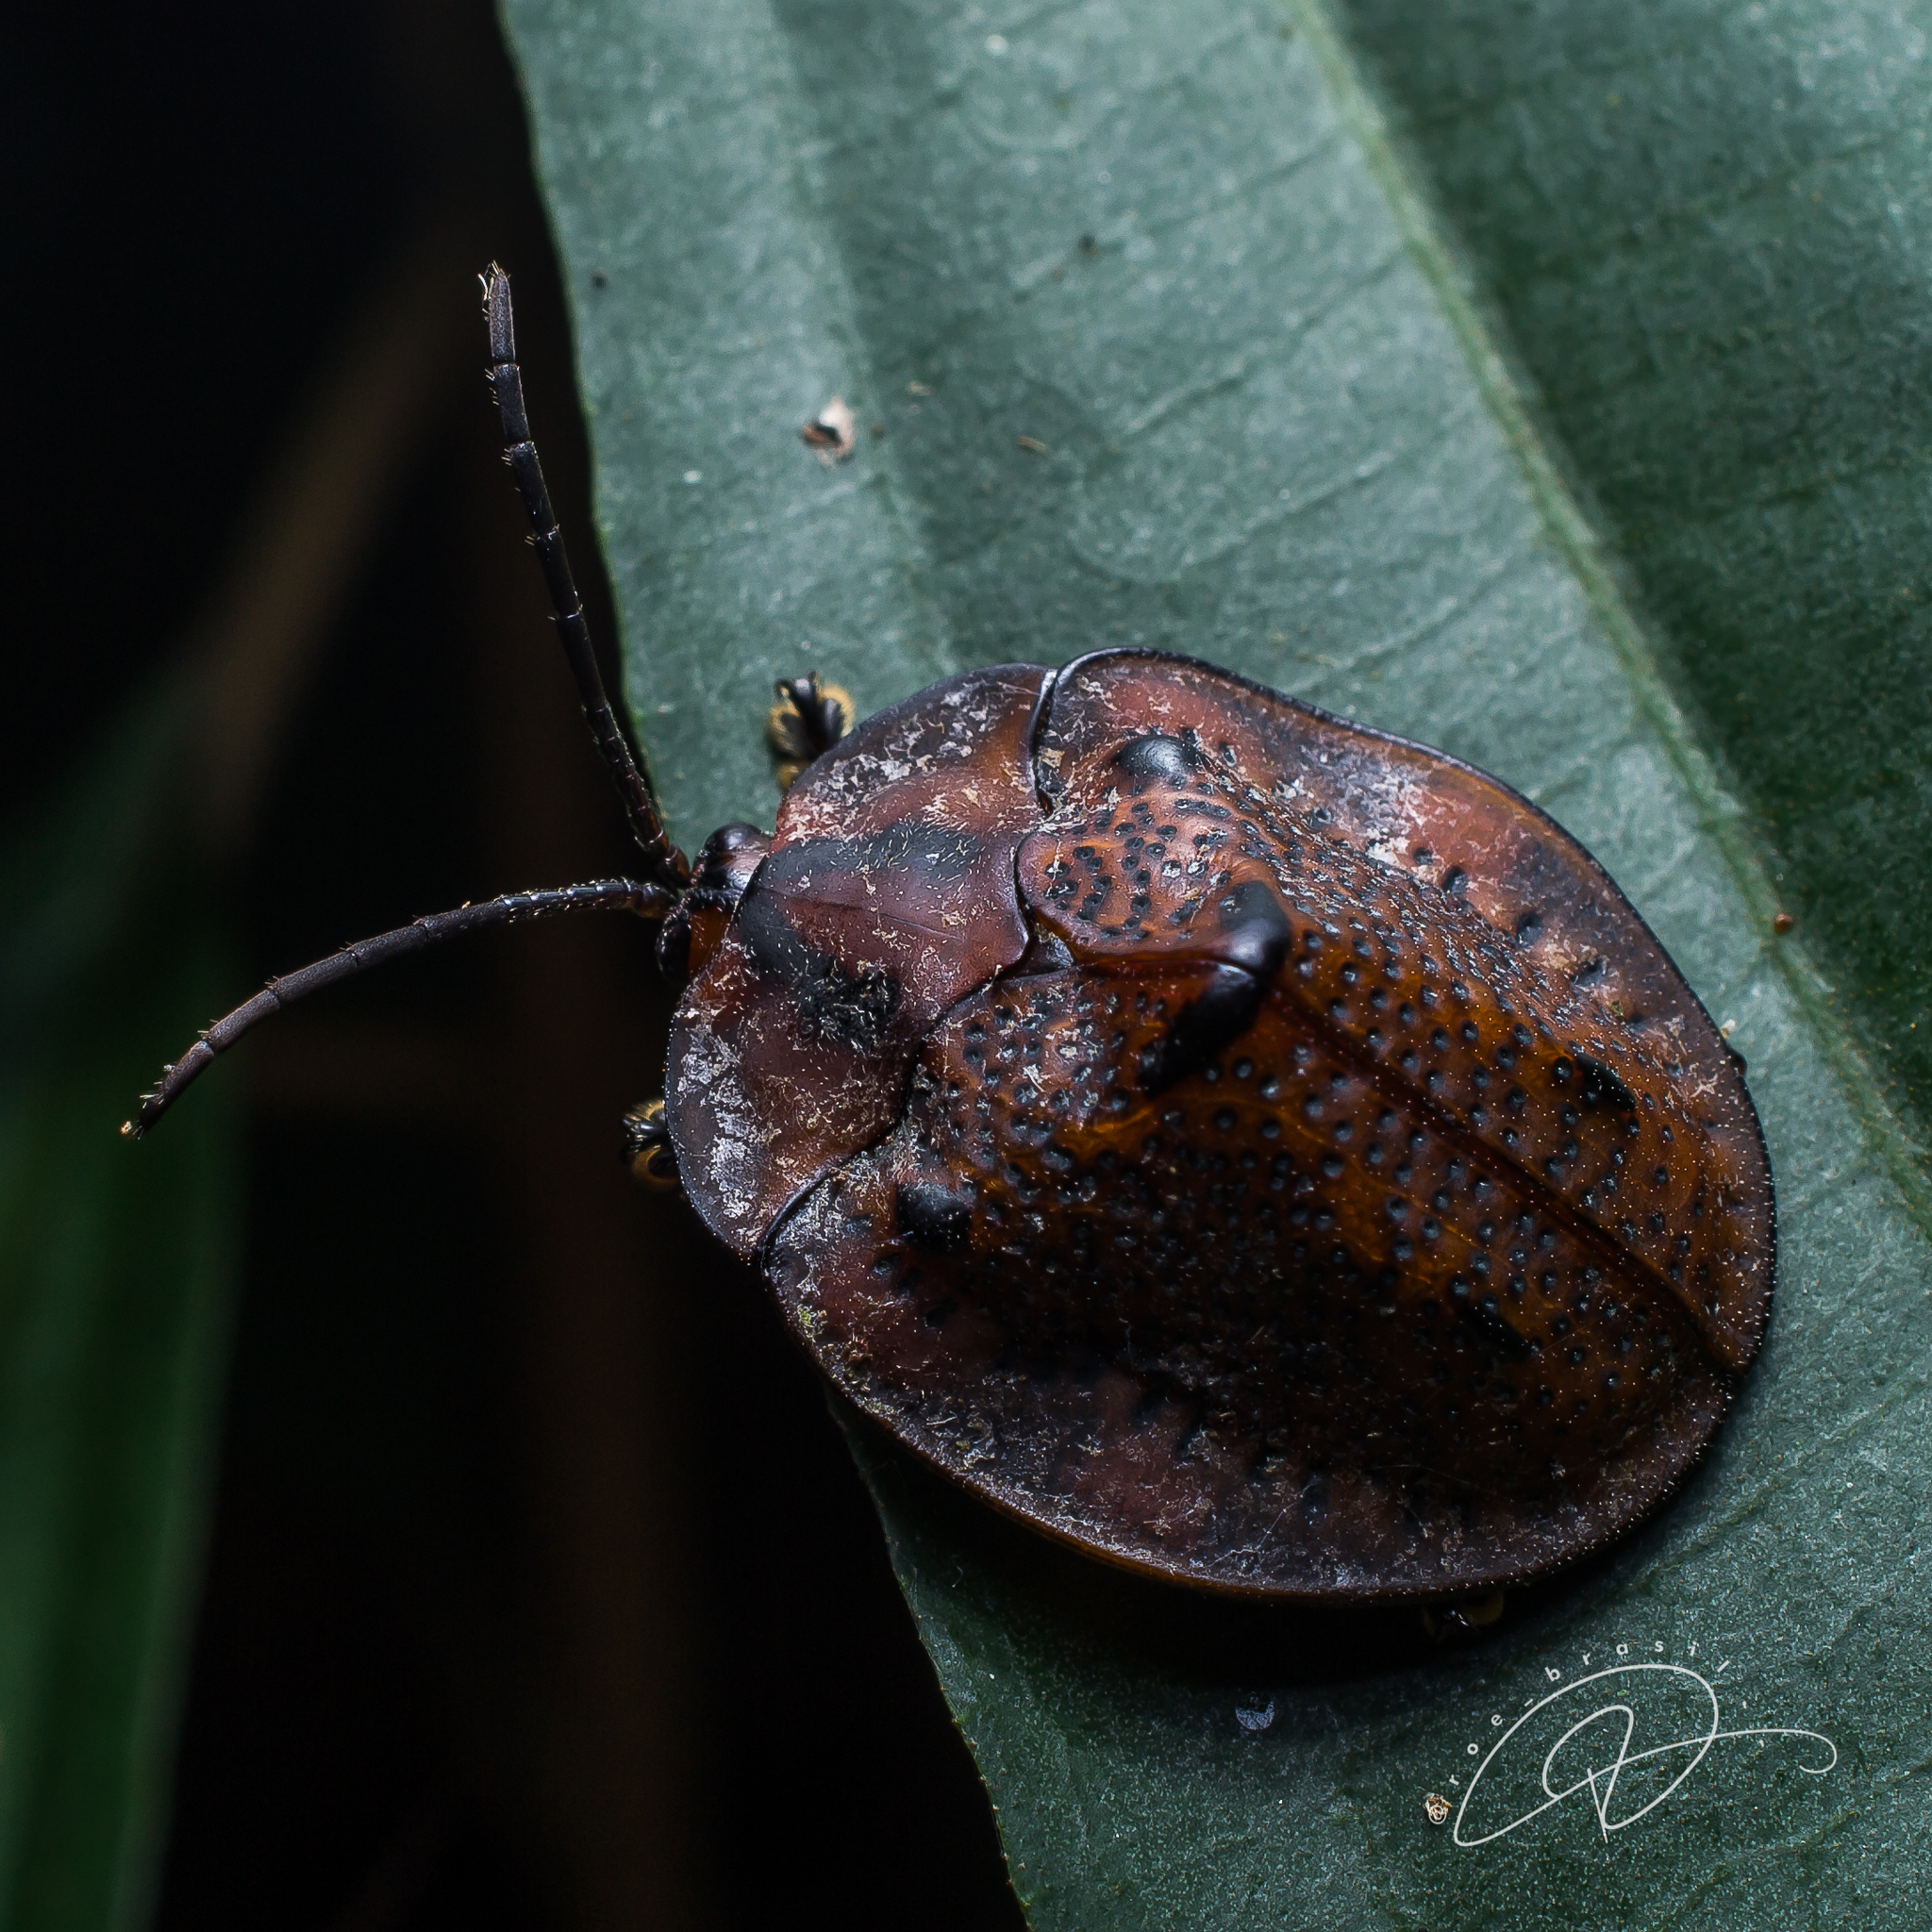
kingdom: Animalia
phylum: Arthropoda
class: Insecta
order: Coleoptera
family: Chrysomelidae
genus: Cyclosoma
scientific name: Cyclosoma fuscopunctata
